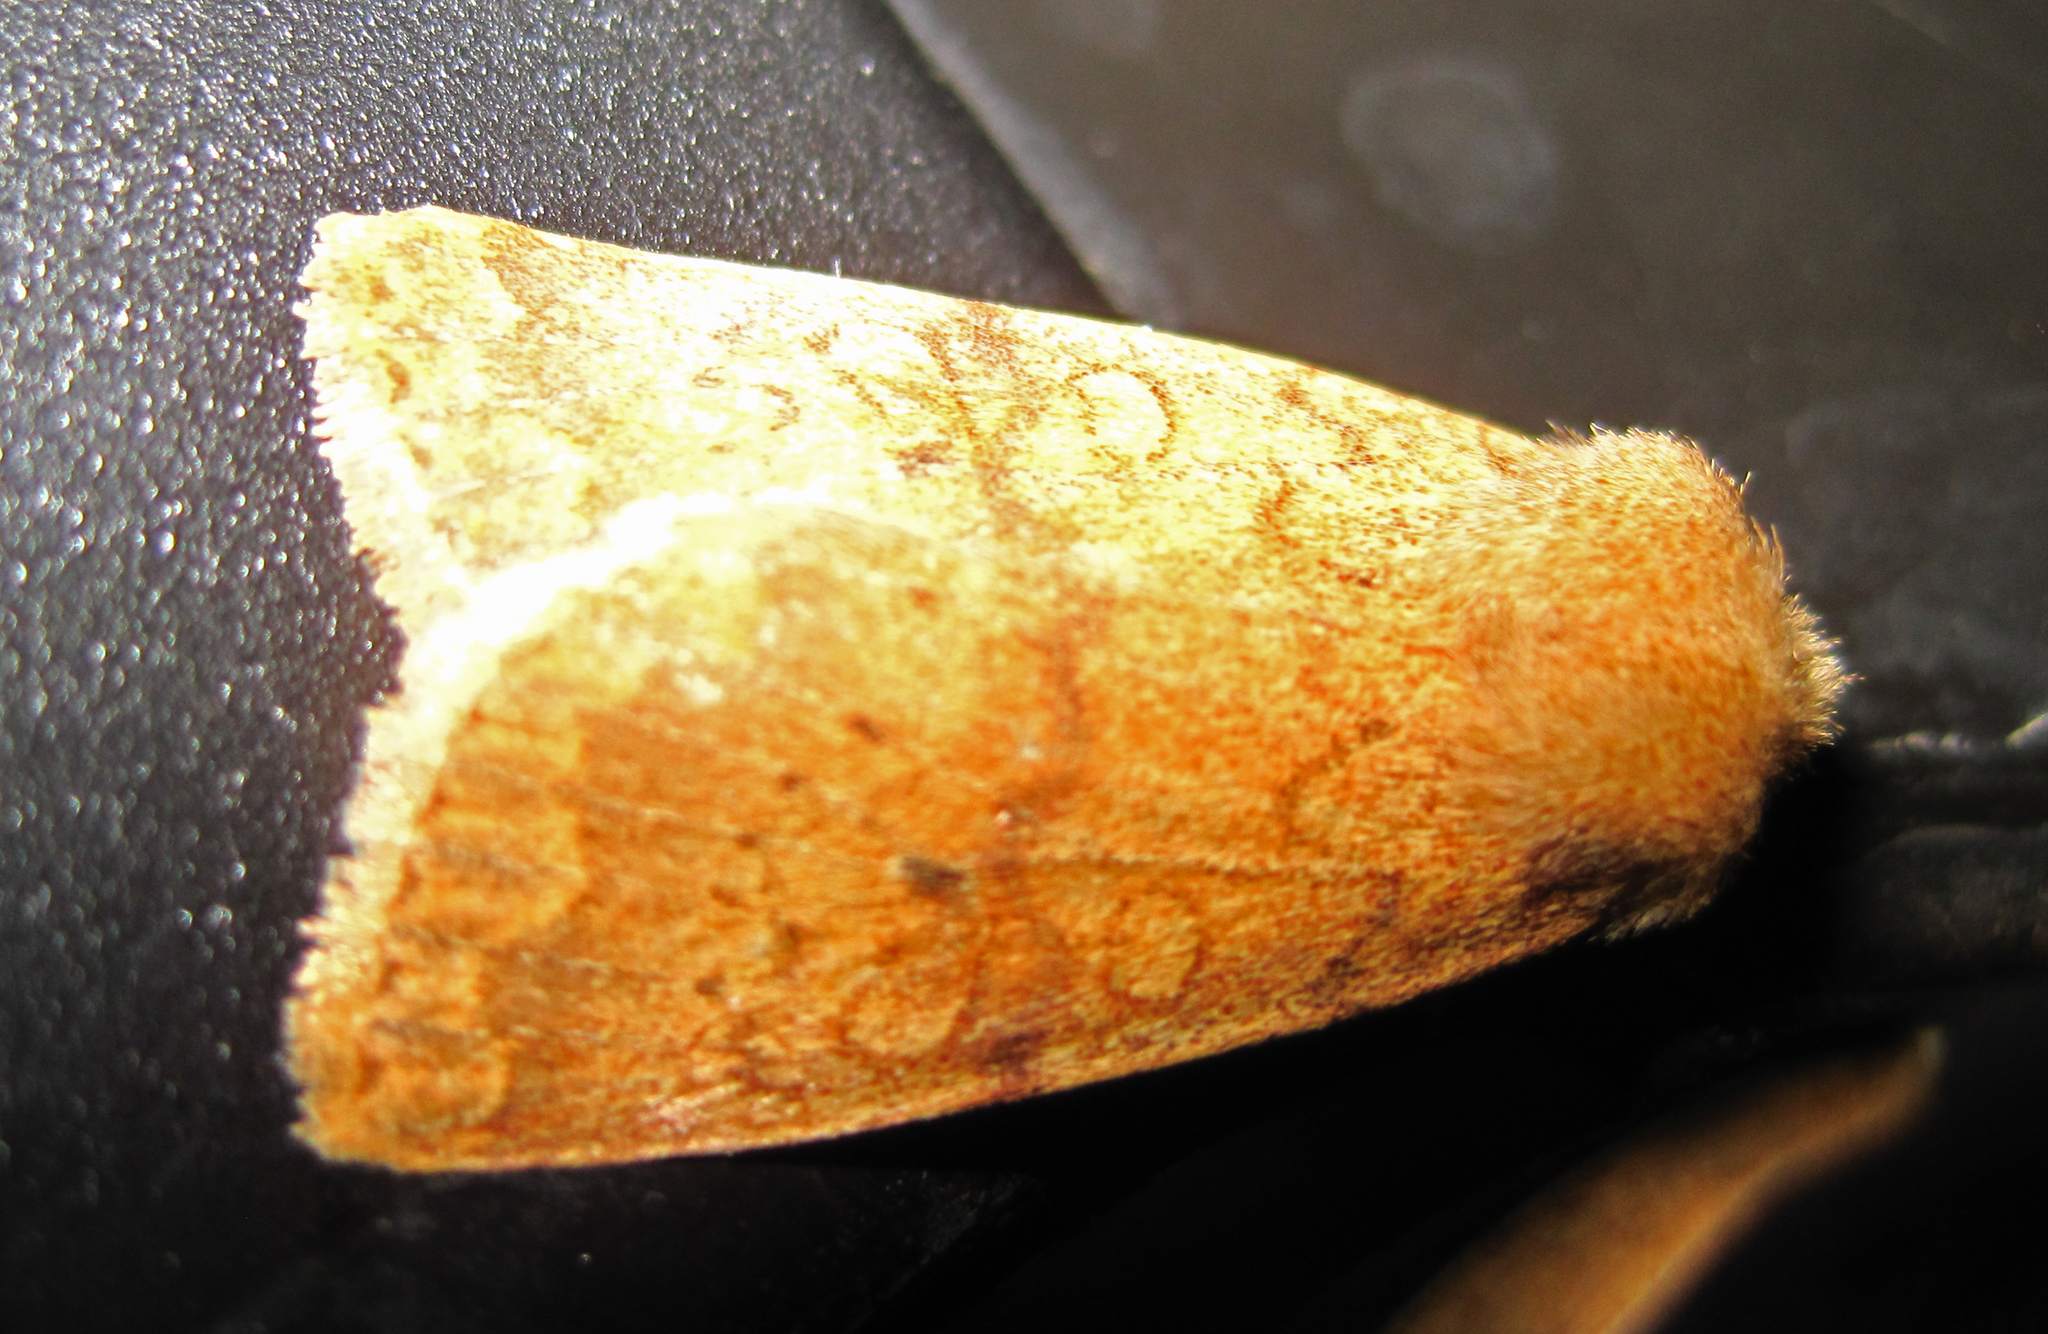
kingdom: Animalia
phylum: Arthropoda
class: Insecta
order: Lepidoptera
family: Noctuidae
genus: Agrochola
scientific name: Agrochola bicolorago
